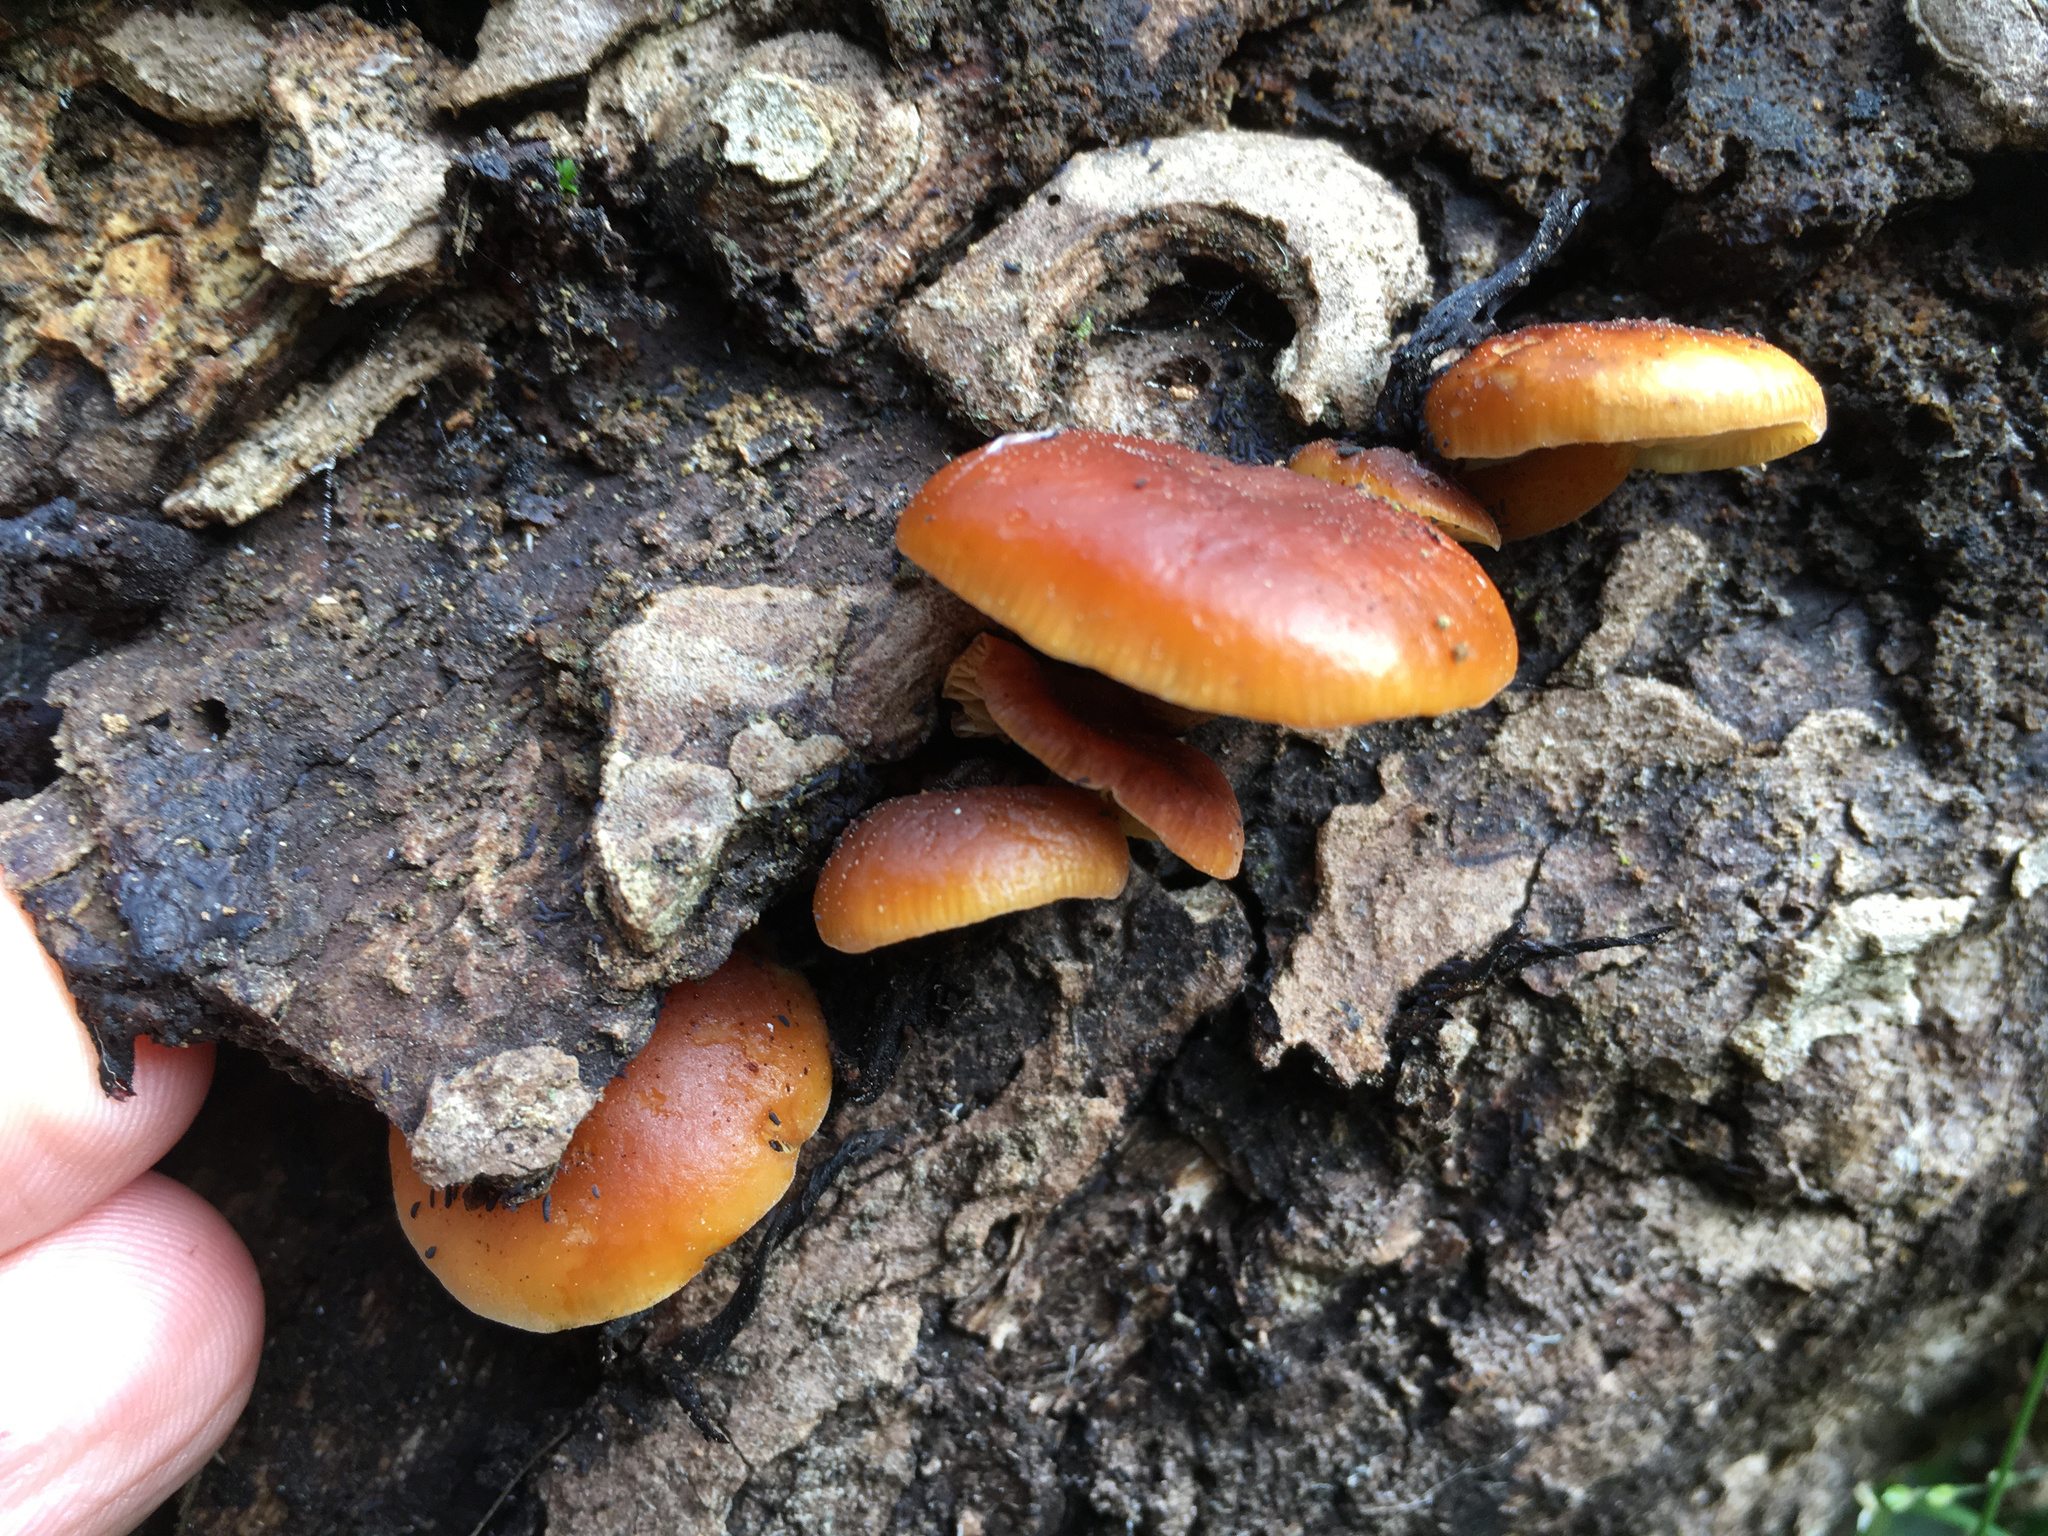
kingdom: Fungi
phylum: Basidiomycota
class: Agaricomycetes
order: Agaricales
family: Physalacriaceae
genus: Flammulina
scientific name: Flammulina velutipes
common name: Velvet shank
